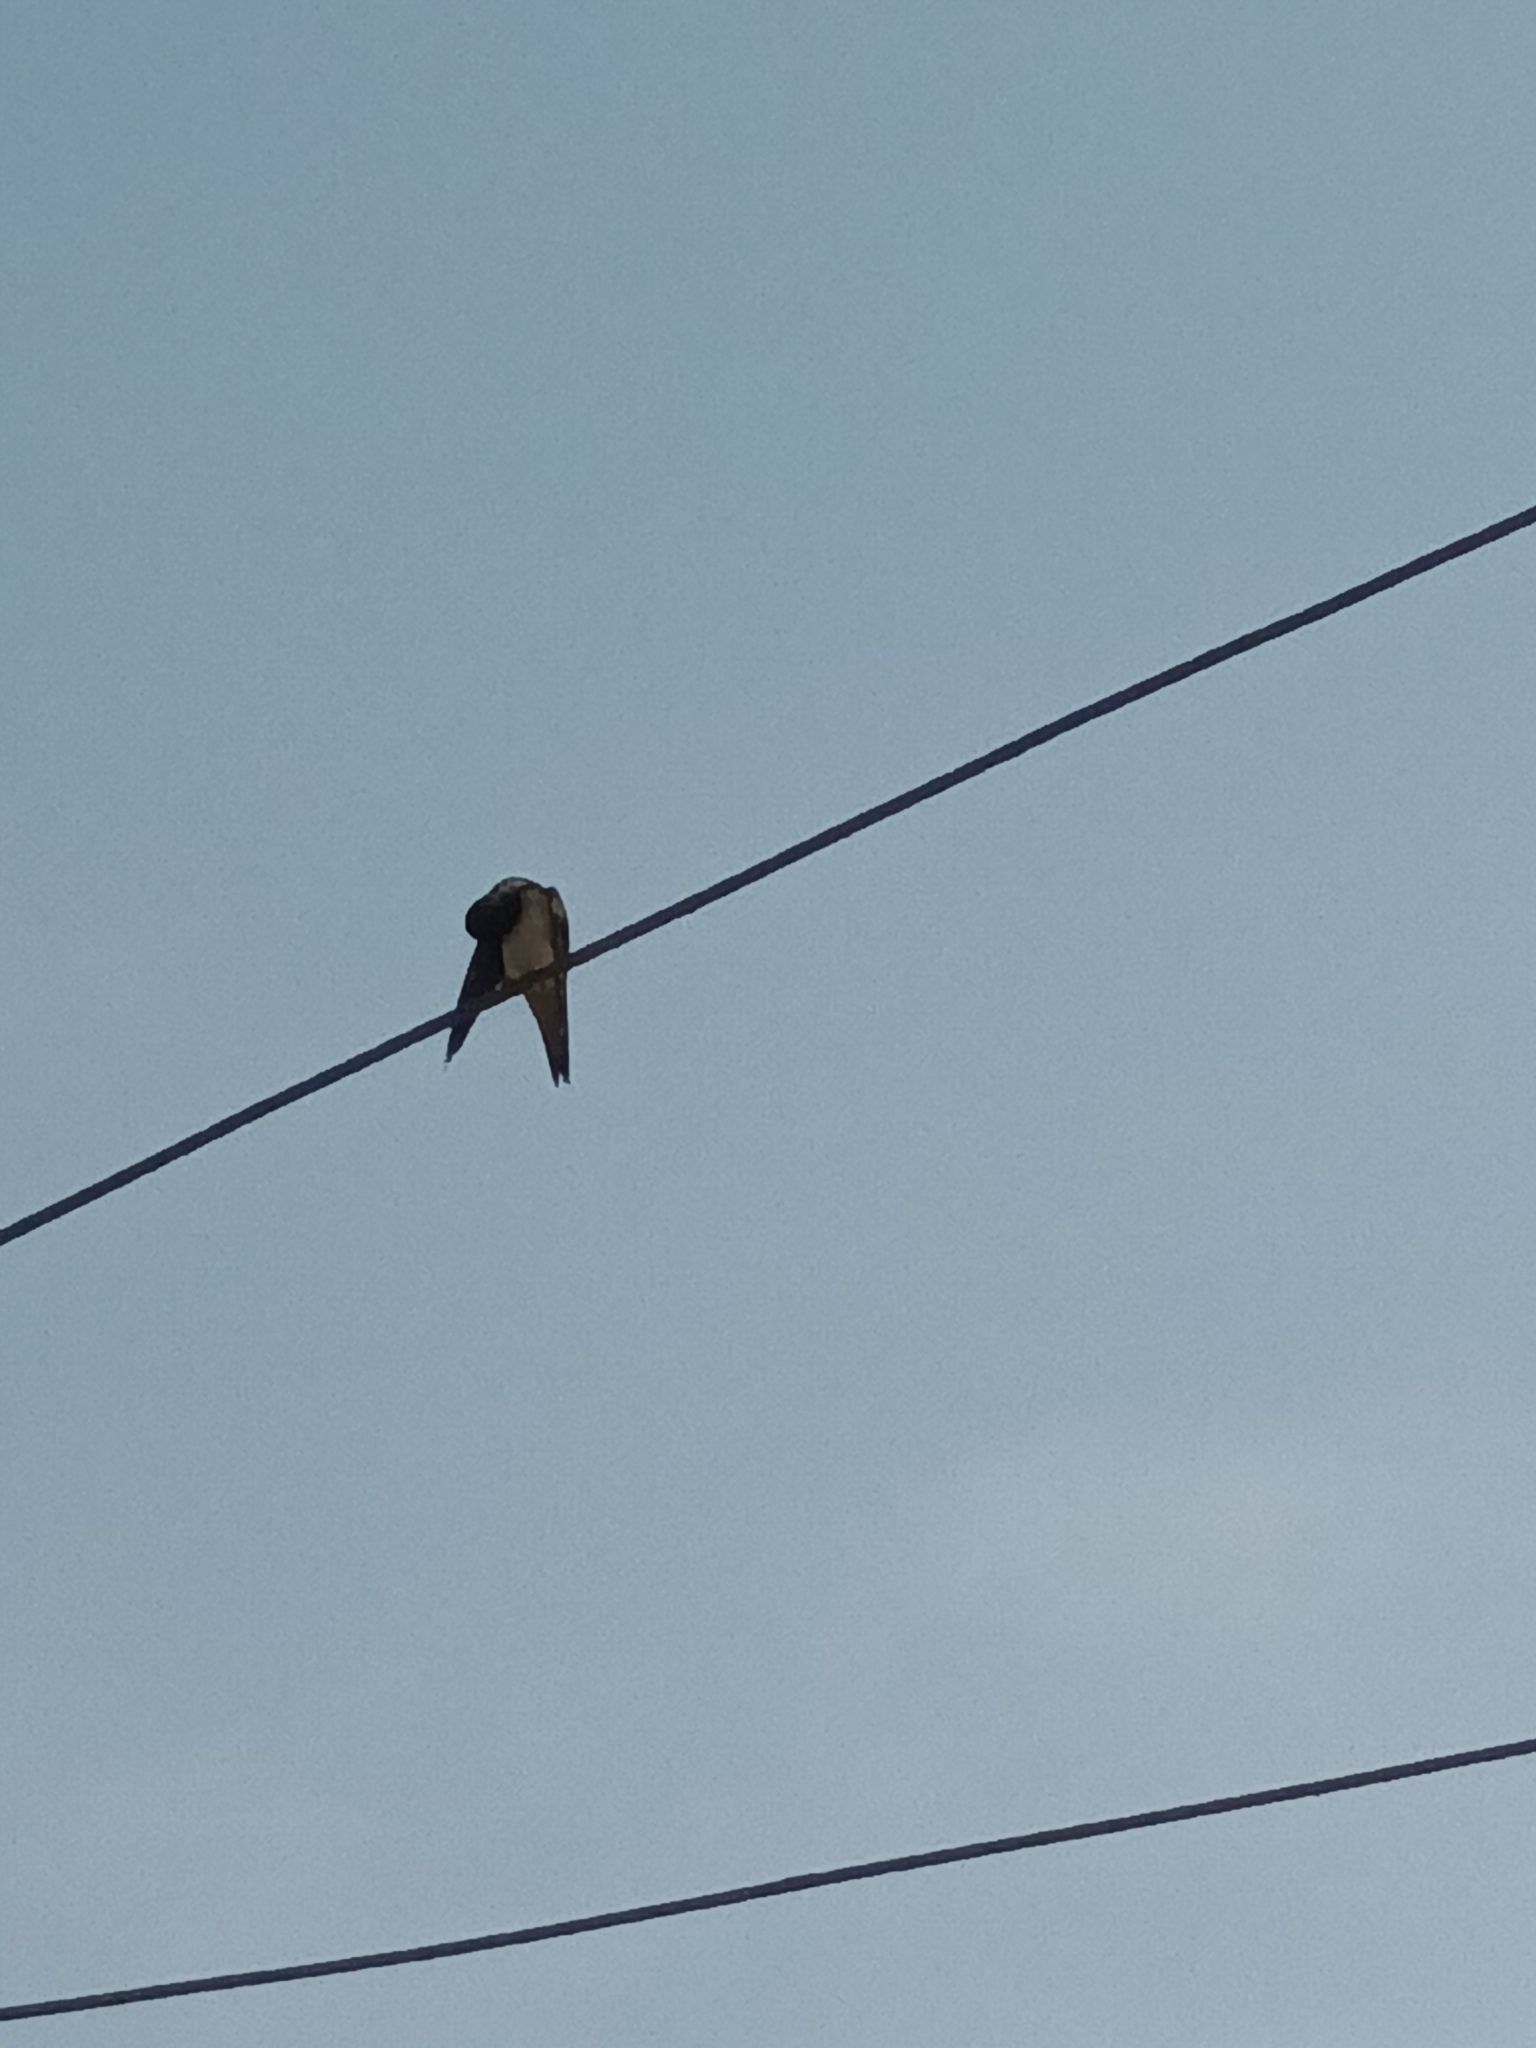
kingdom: Animalia
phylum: Chordata
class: Aves
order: Passeriformes
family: Hirundinidae
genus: Hirundo
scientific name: Hirundo rustica
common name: Barn swallow
